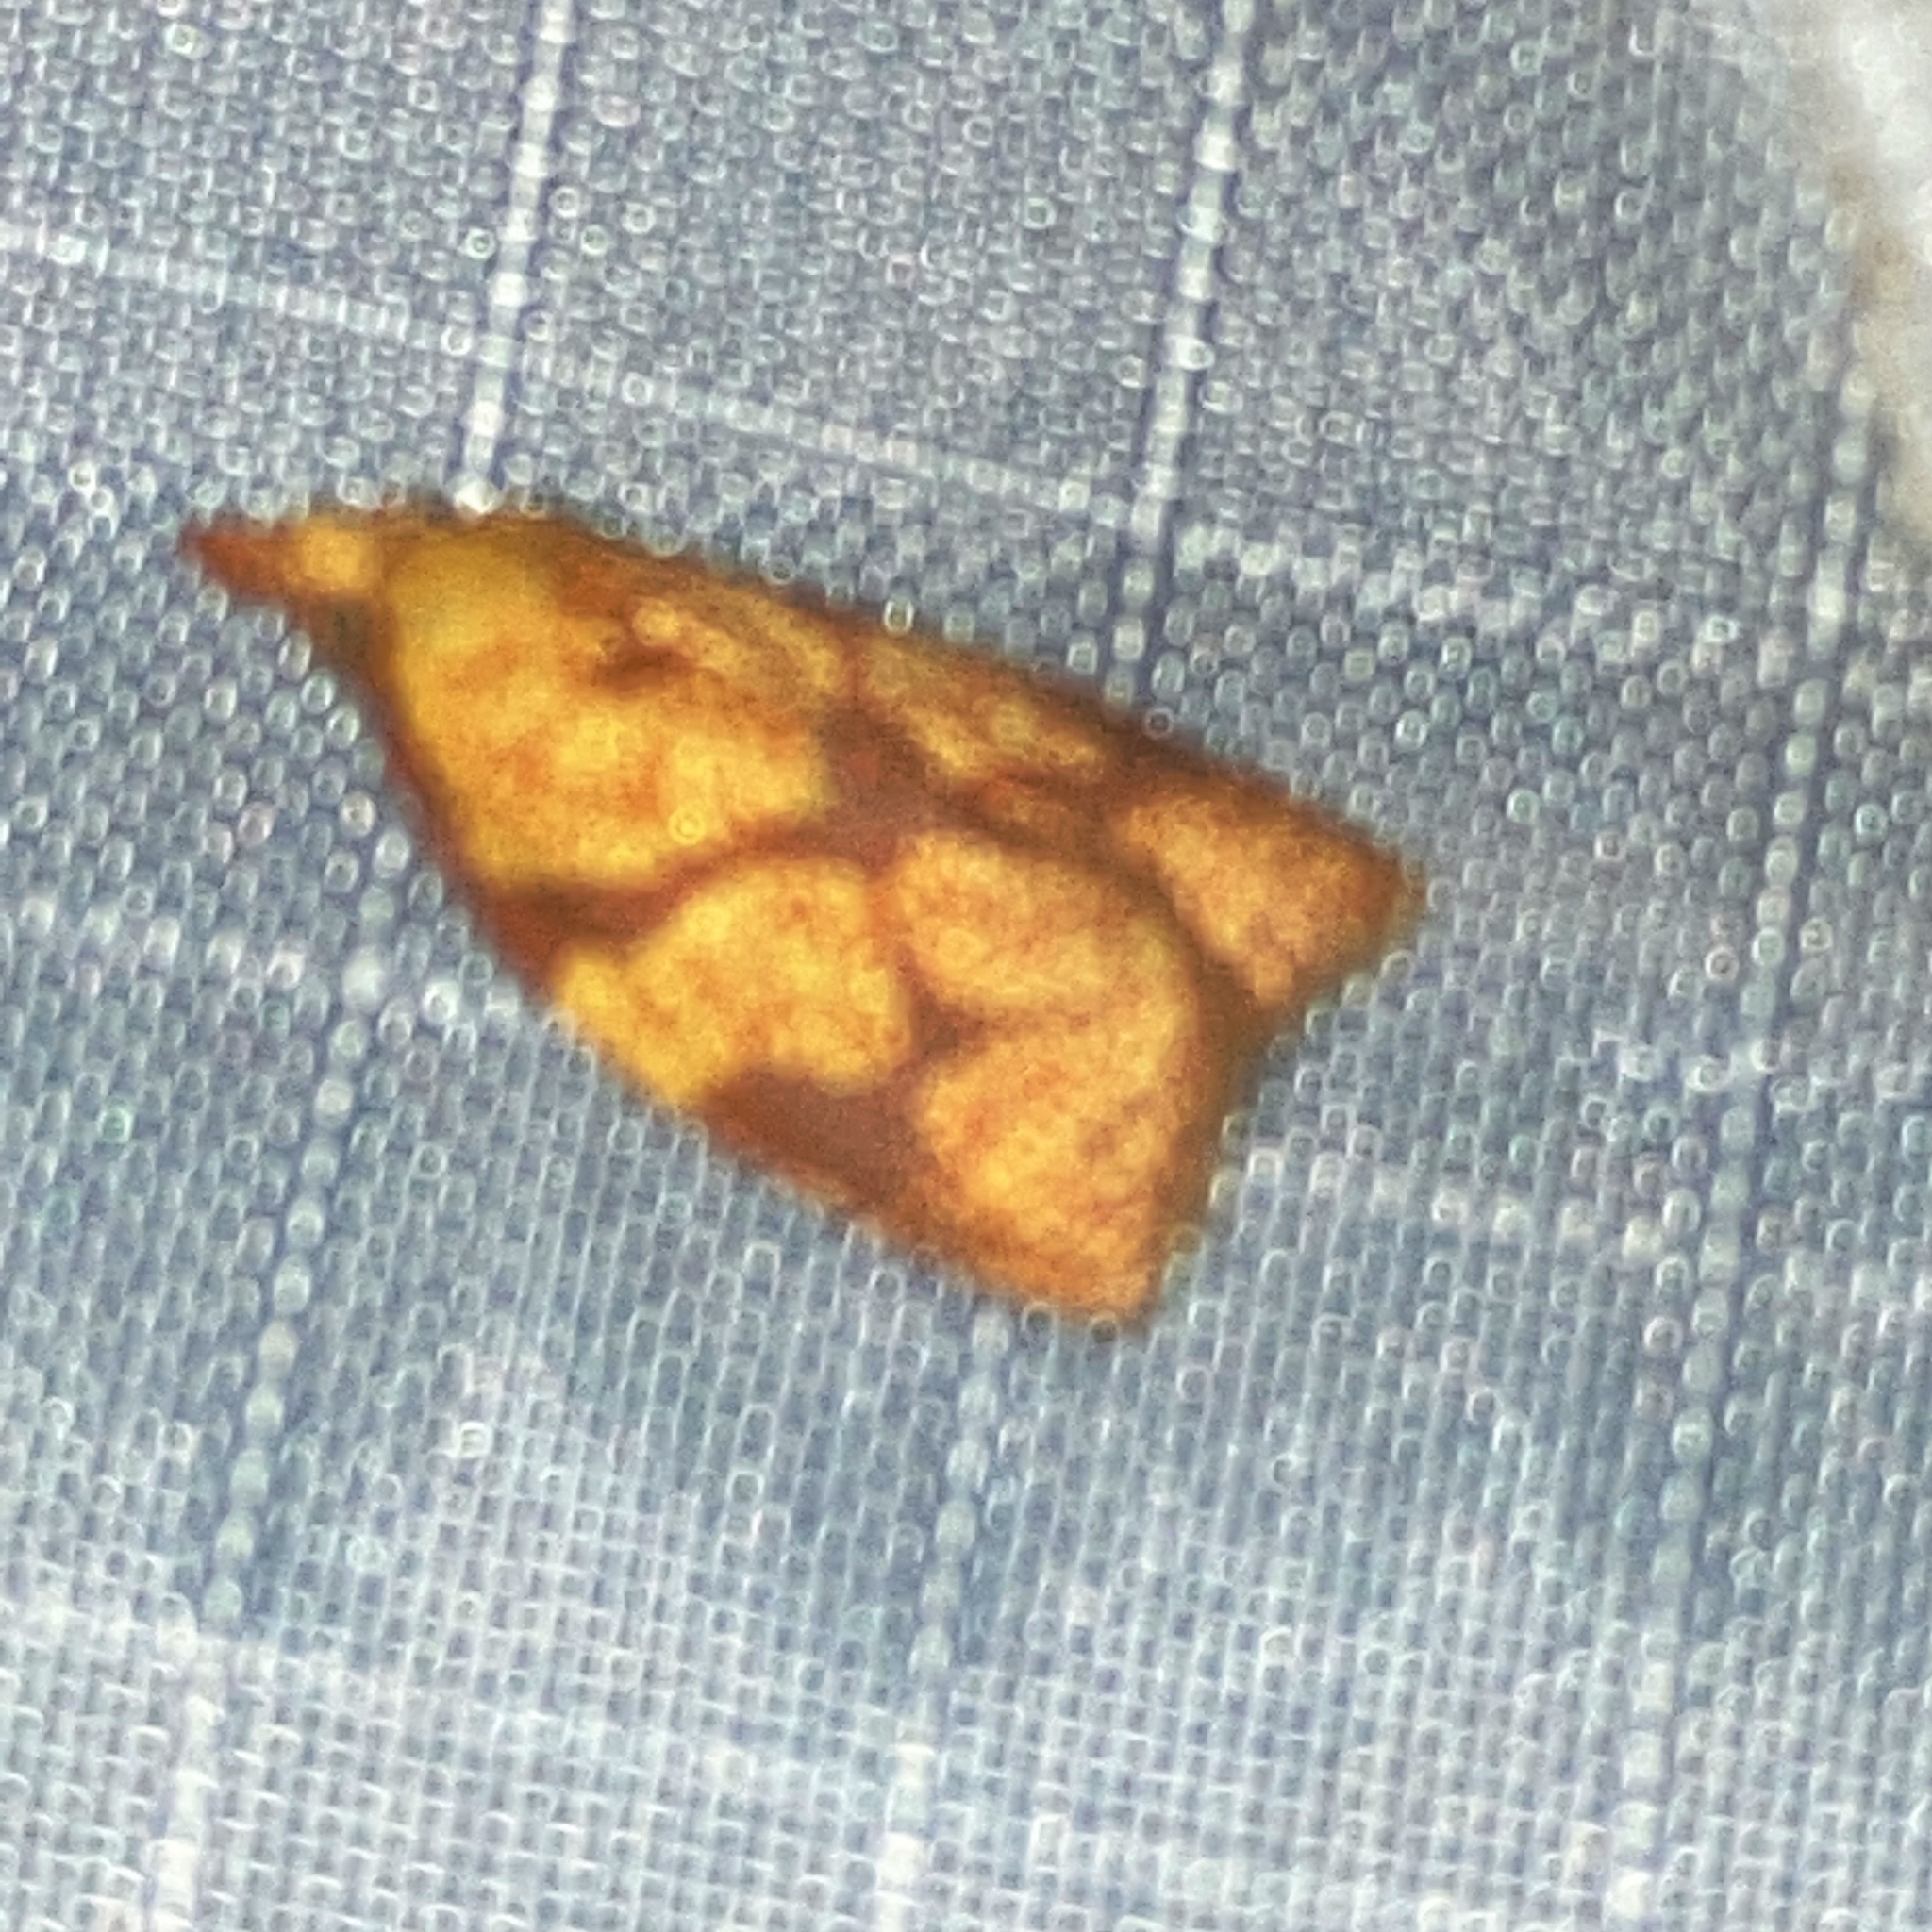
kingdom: Animalia
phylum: Arthropoda
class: Insecta
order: Lepidoptera
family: Tortricidae
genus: Cenopis
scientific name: Cenopis reticulatana
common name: Reticulated fruitworm moth
